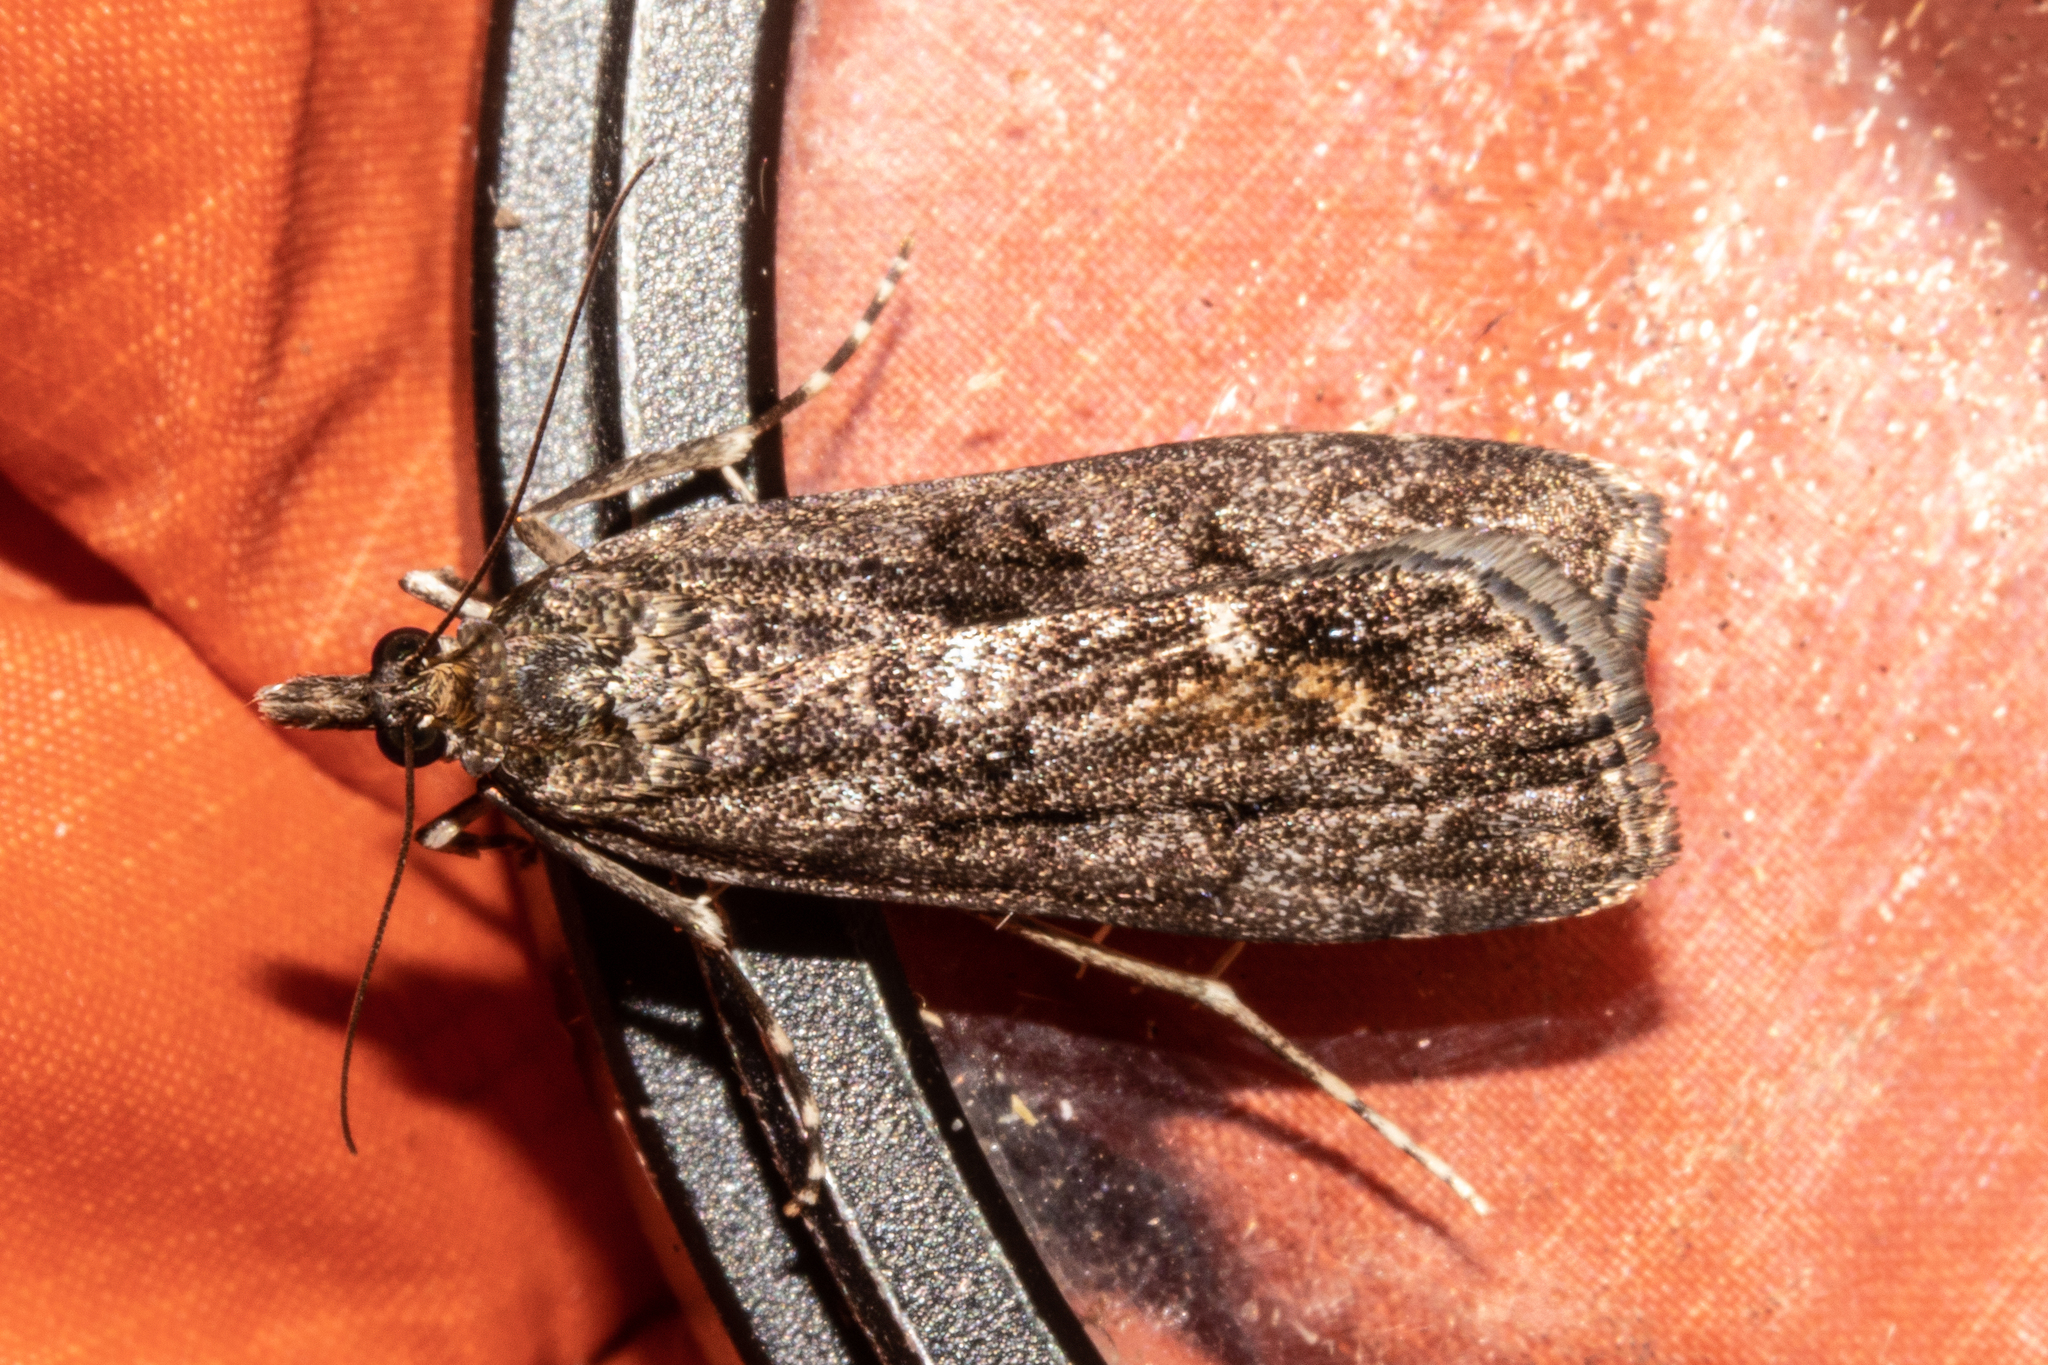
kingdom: Animalia
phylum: Arthropoda
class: Insecta
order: Lepidoptera
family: Crambidae
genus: Eudonia
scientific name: Eudonia submarginalis
